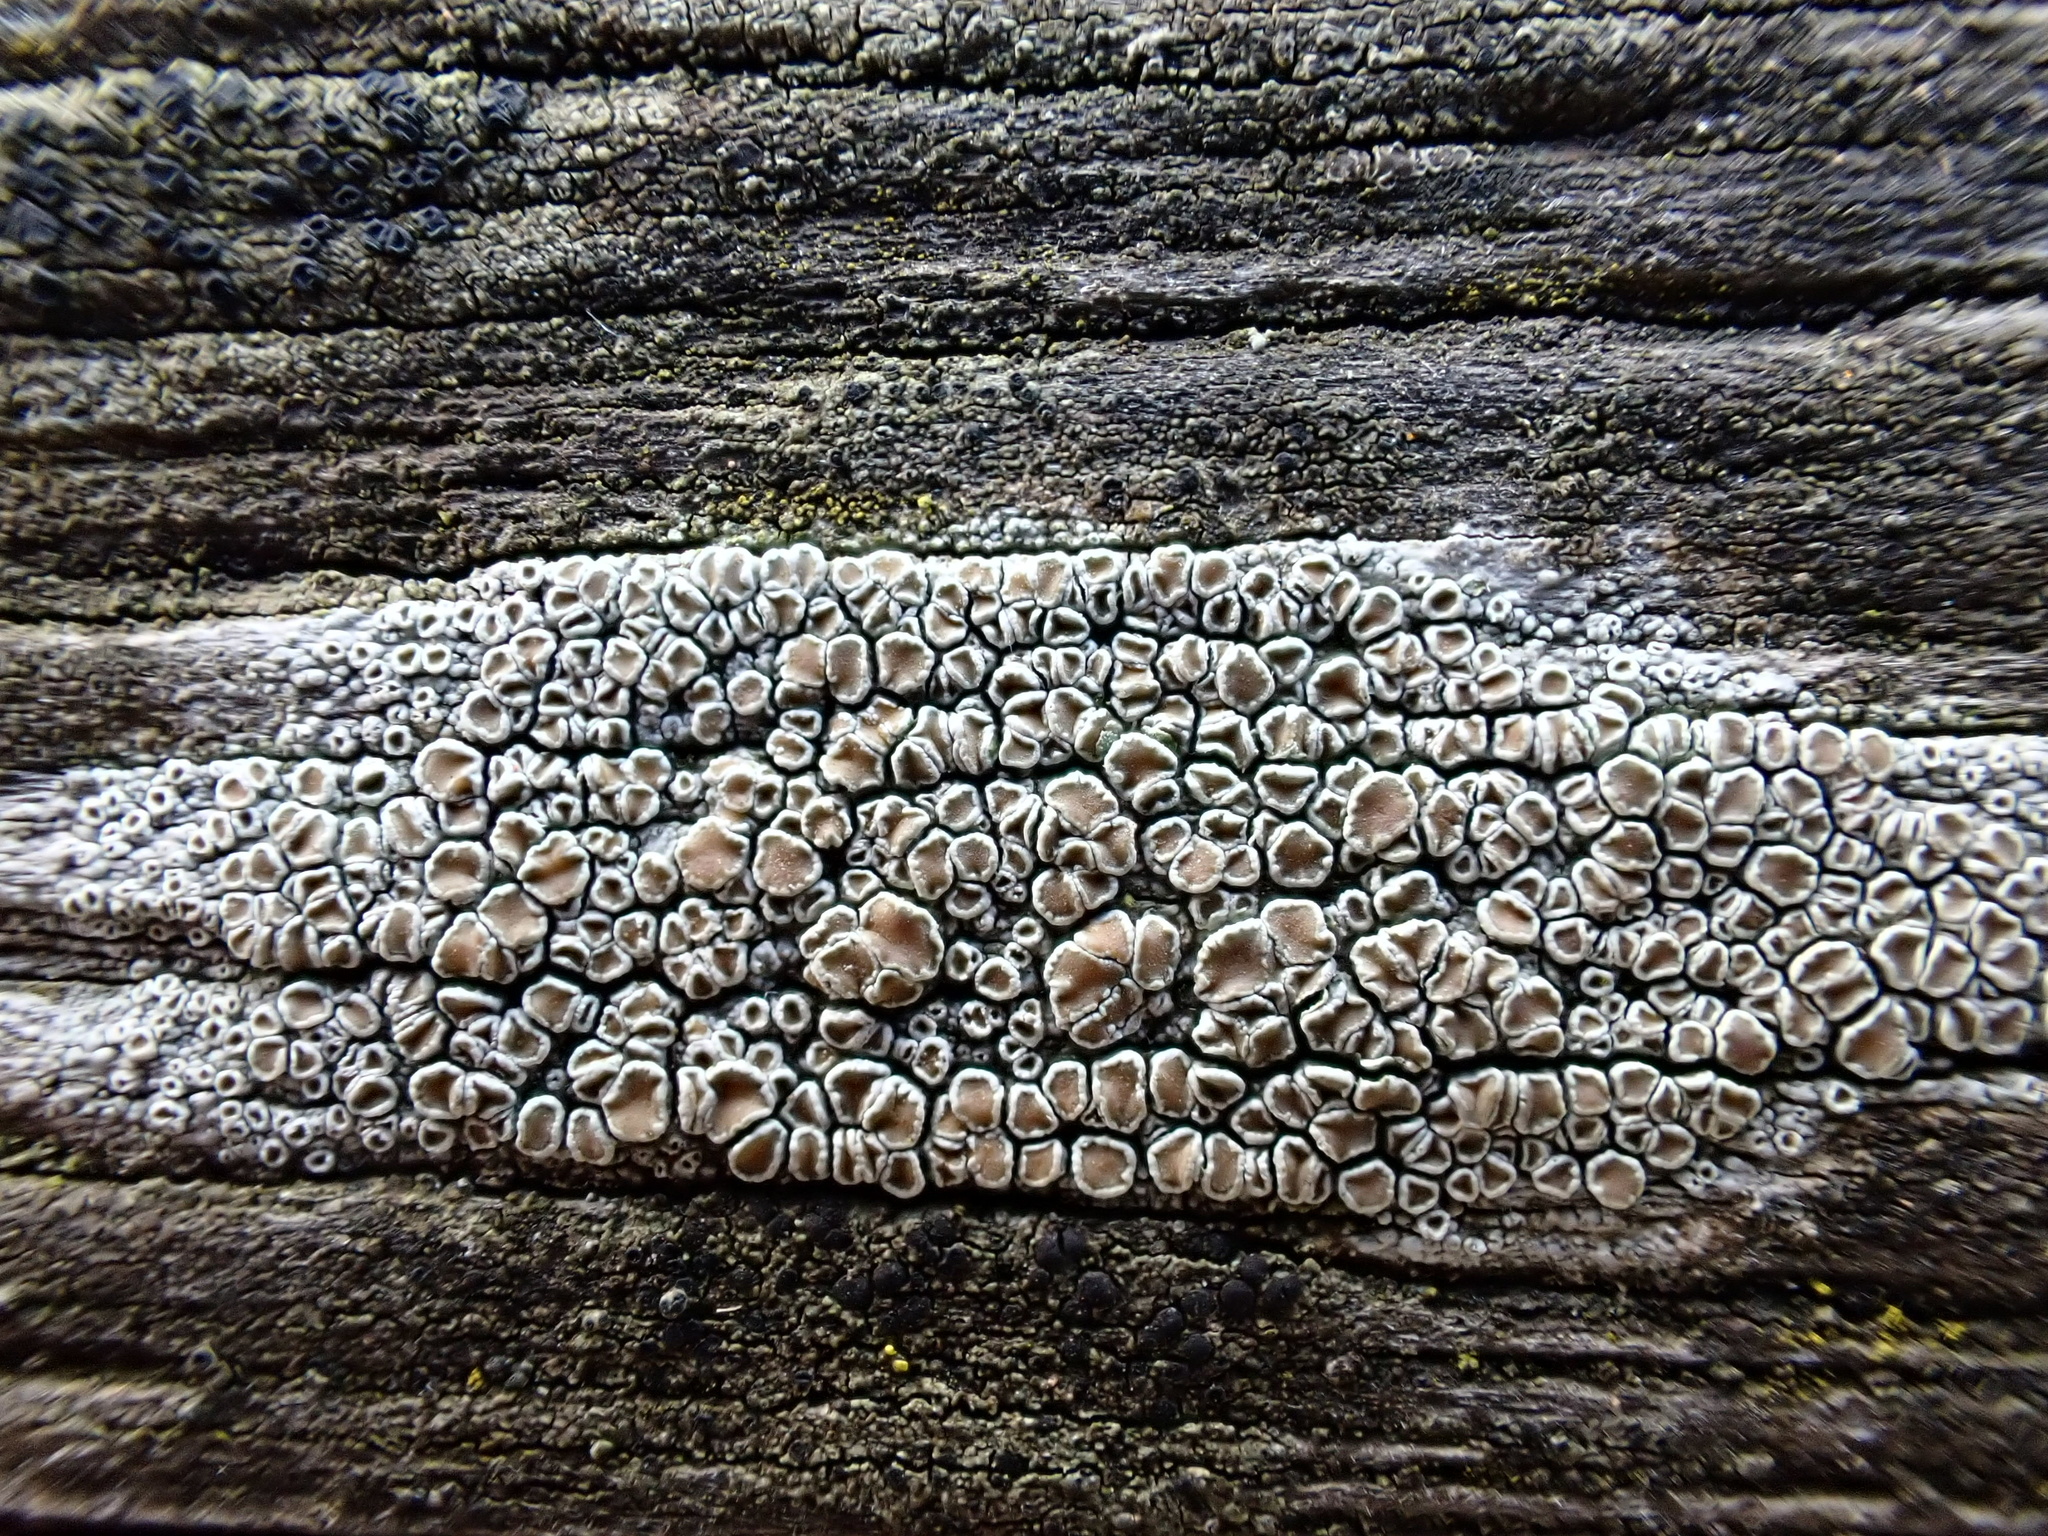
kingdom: Fungi
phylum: Ascomycota
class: Lecanoromycetes
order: Lecanorales
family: Lecanoraceae
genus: Lecanora
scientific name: Lecanora chlarotera
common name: Brown rim-lichen
